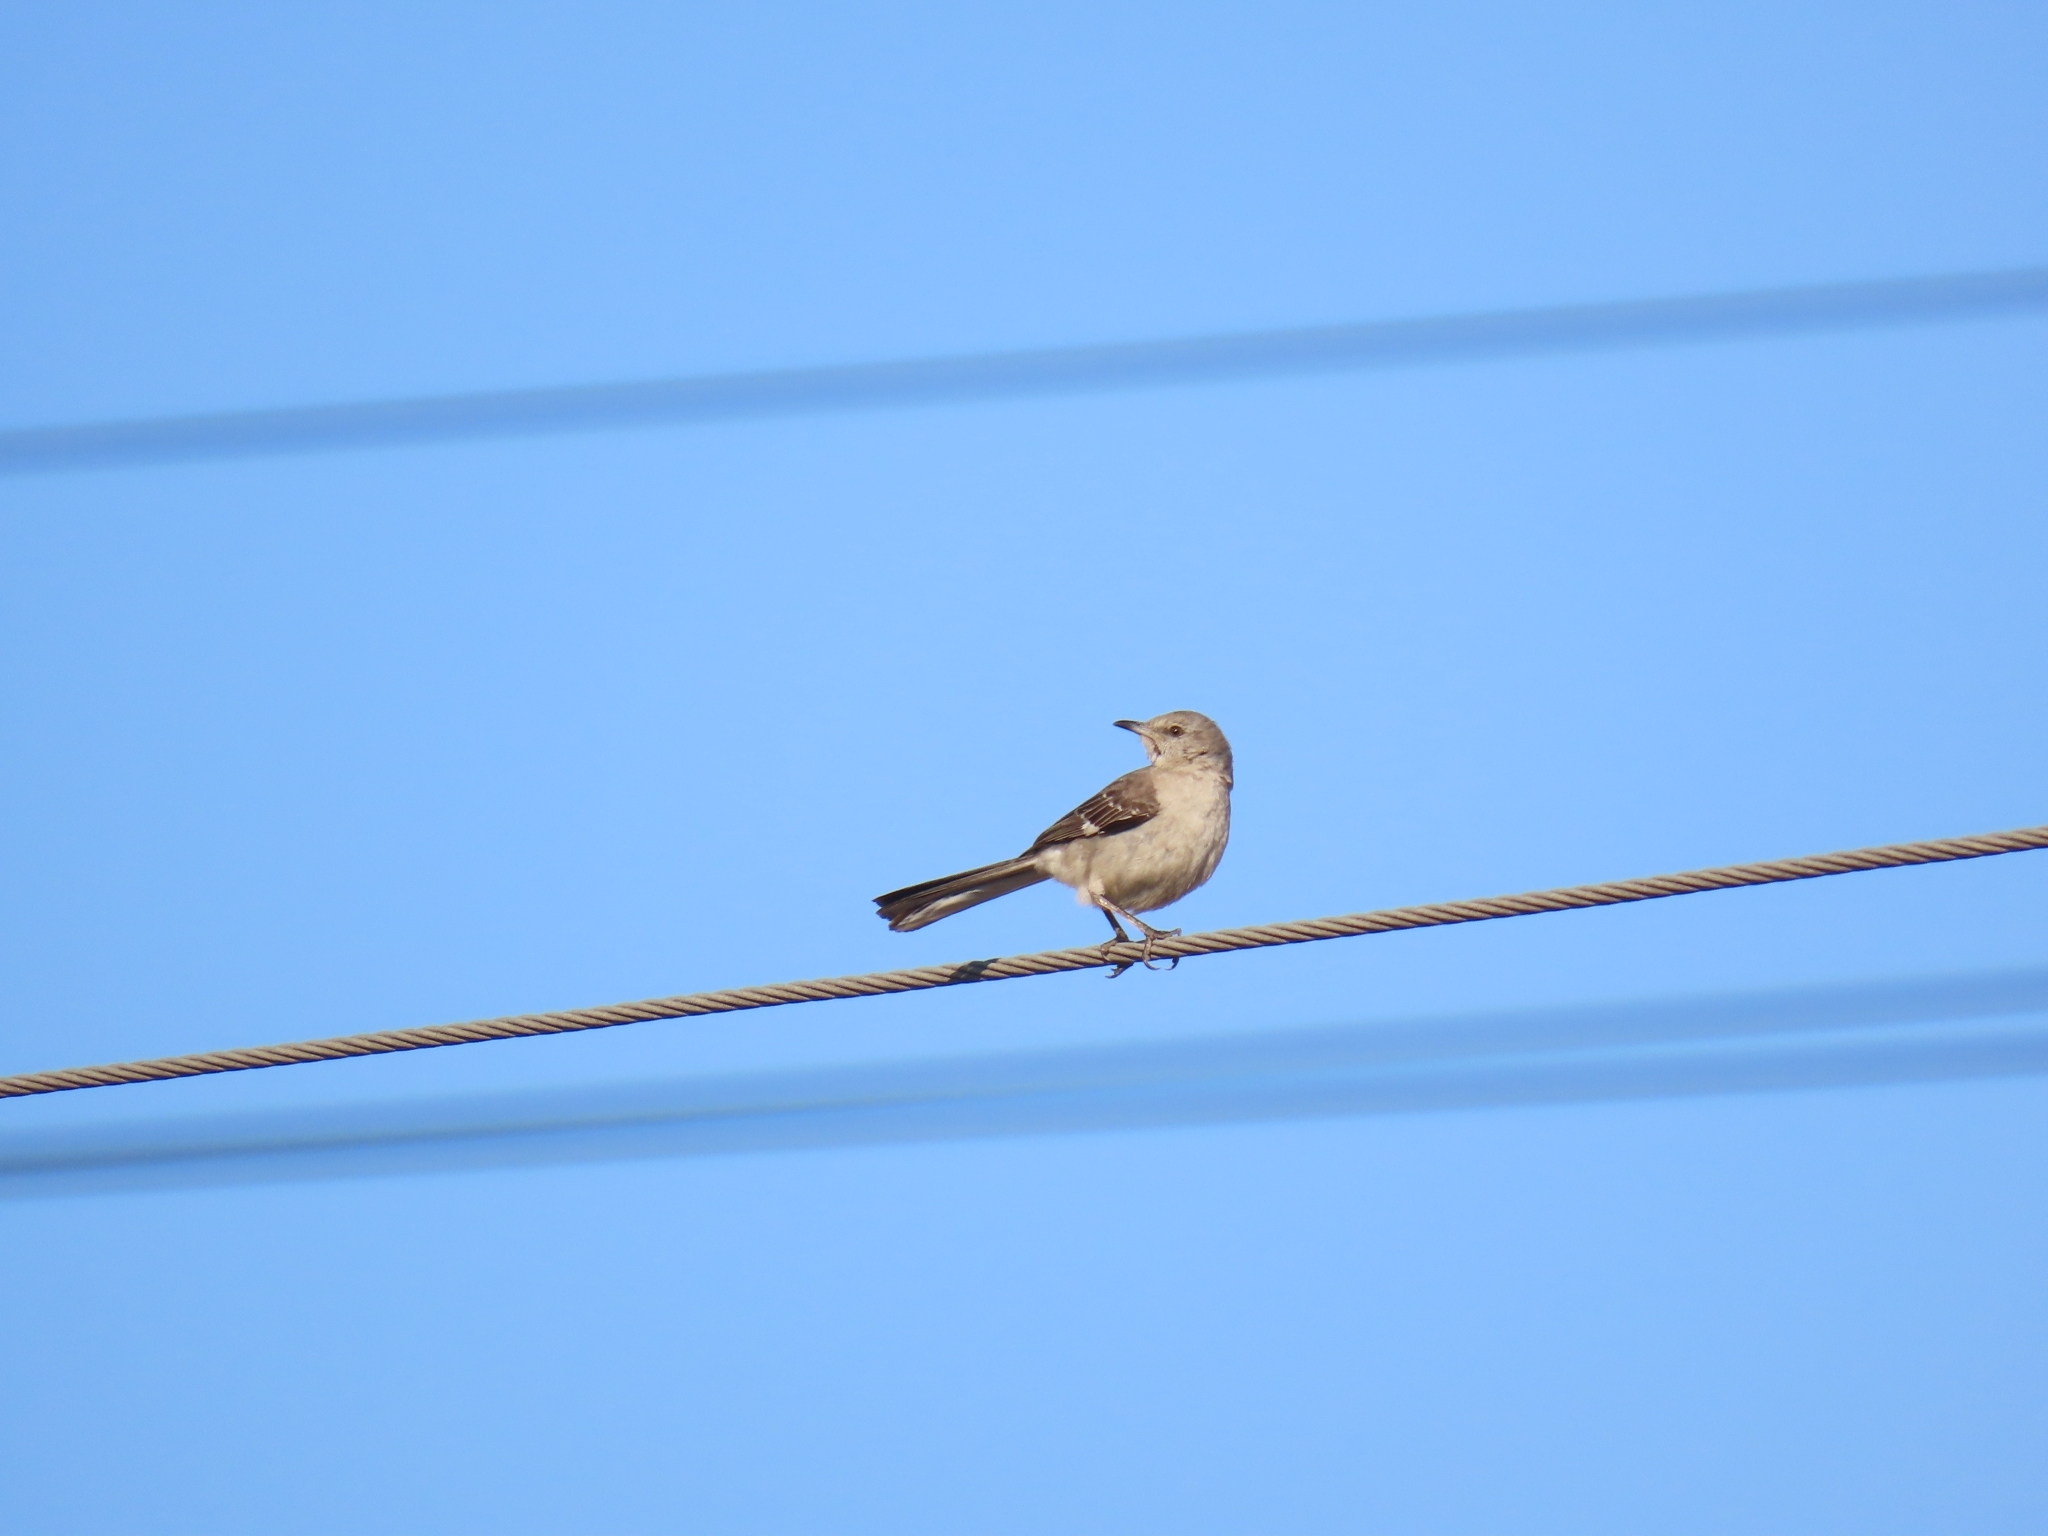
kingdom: Animalia
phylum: Chordata
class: Aves
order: Passeriformes
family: Mimidae
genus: Mimus
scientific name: Mimus polyglottos
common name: Northern mockingbird
